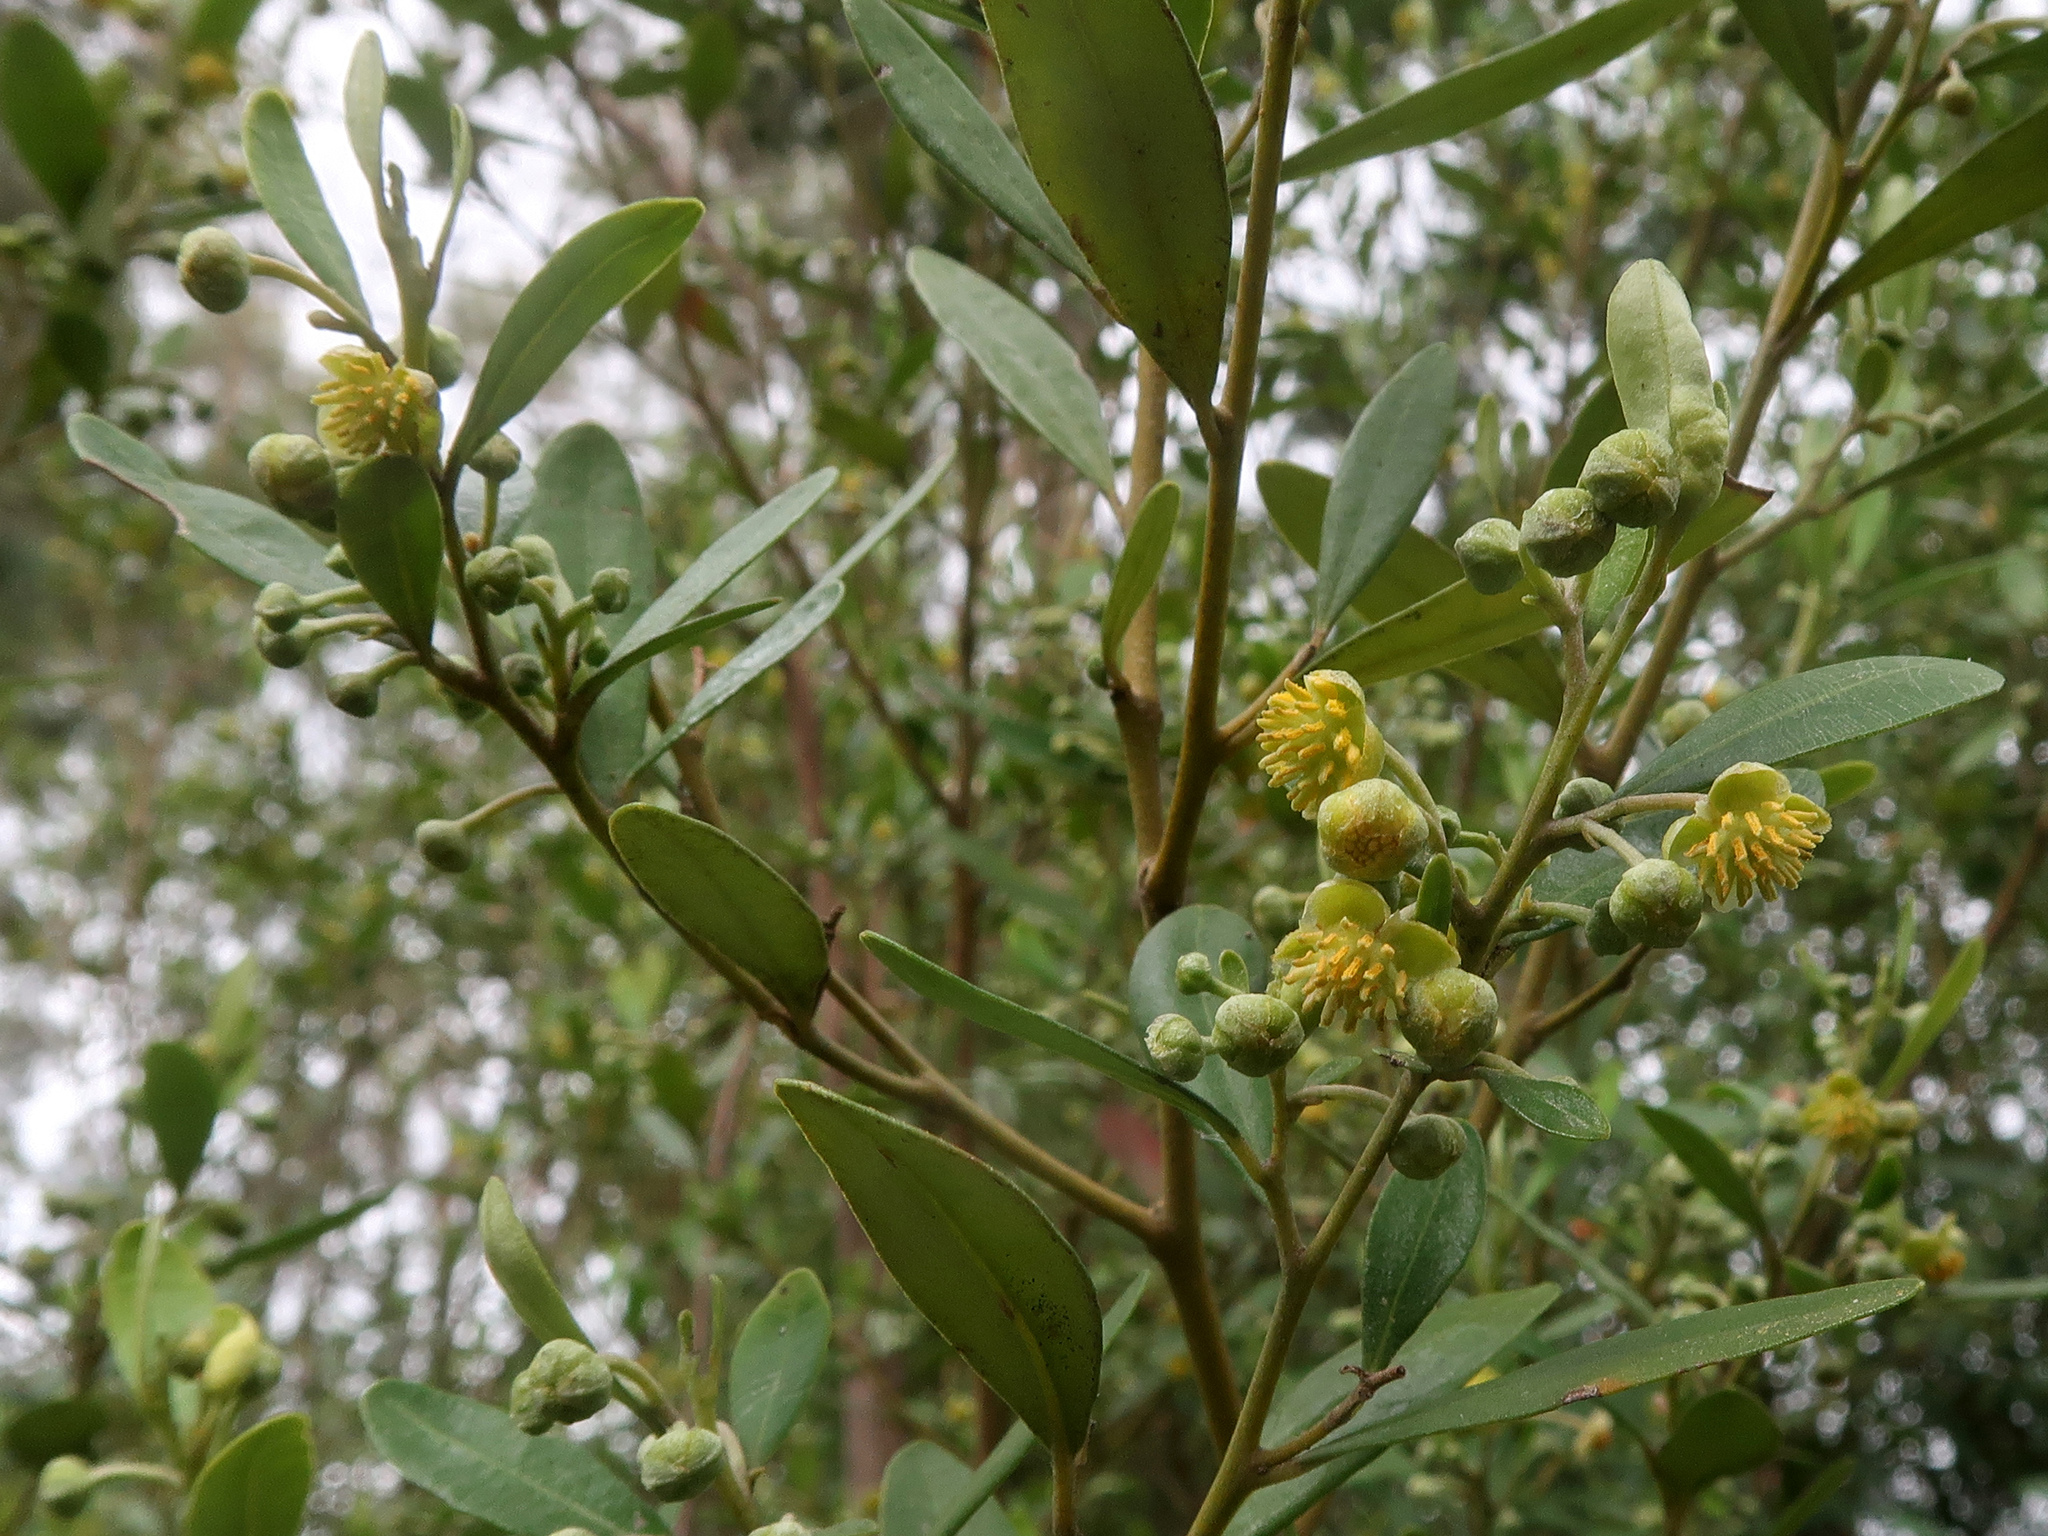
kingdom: Plantae
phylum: Tracheophyta
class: Magnoliopsida
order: Malpighiales
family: Euphorbiaceae
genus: Beyeria
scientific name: Beyeria viscosa
